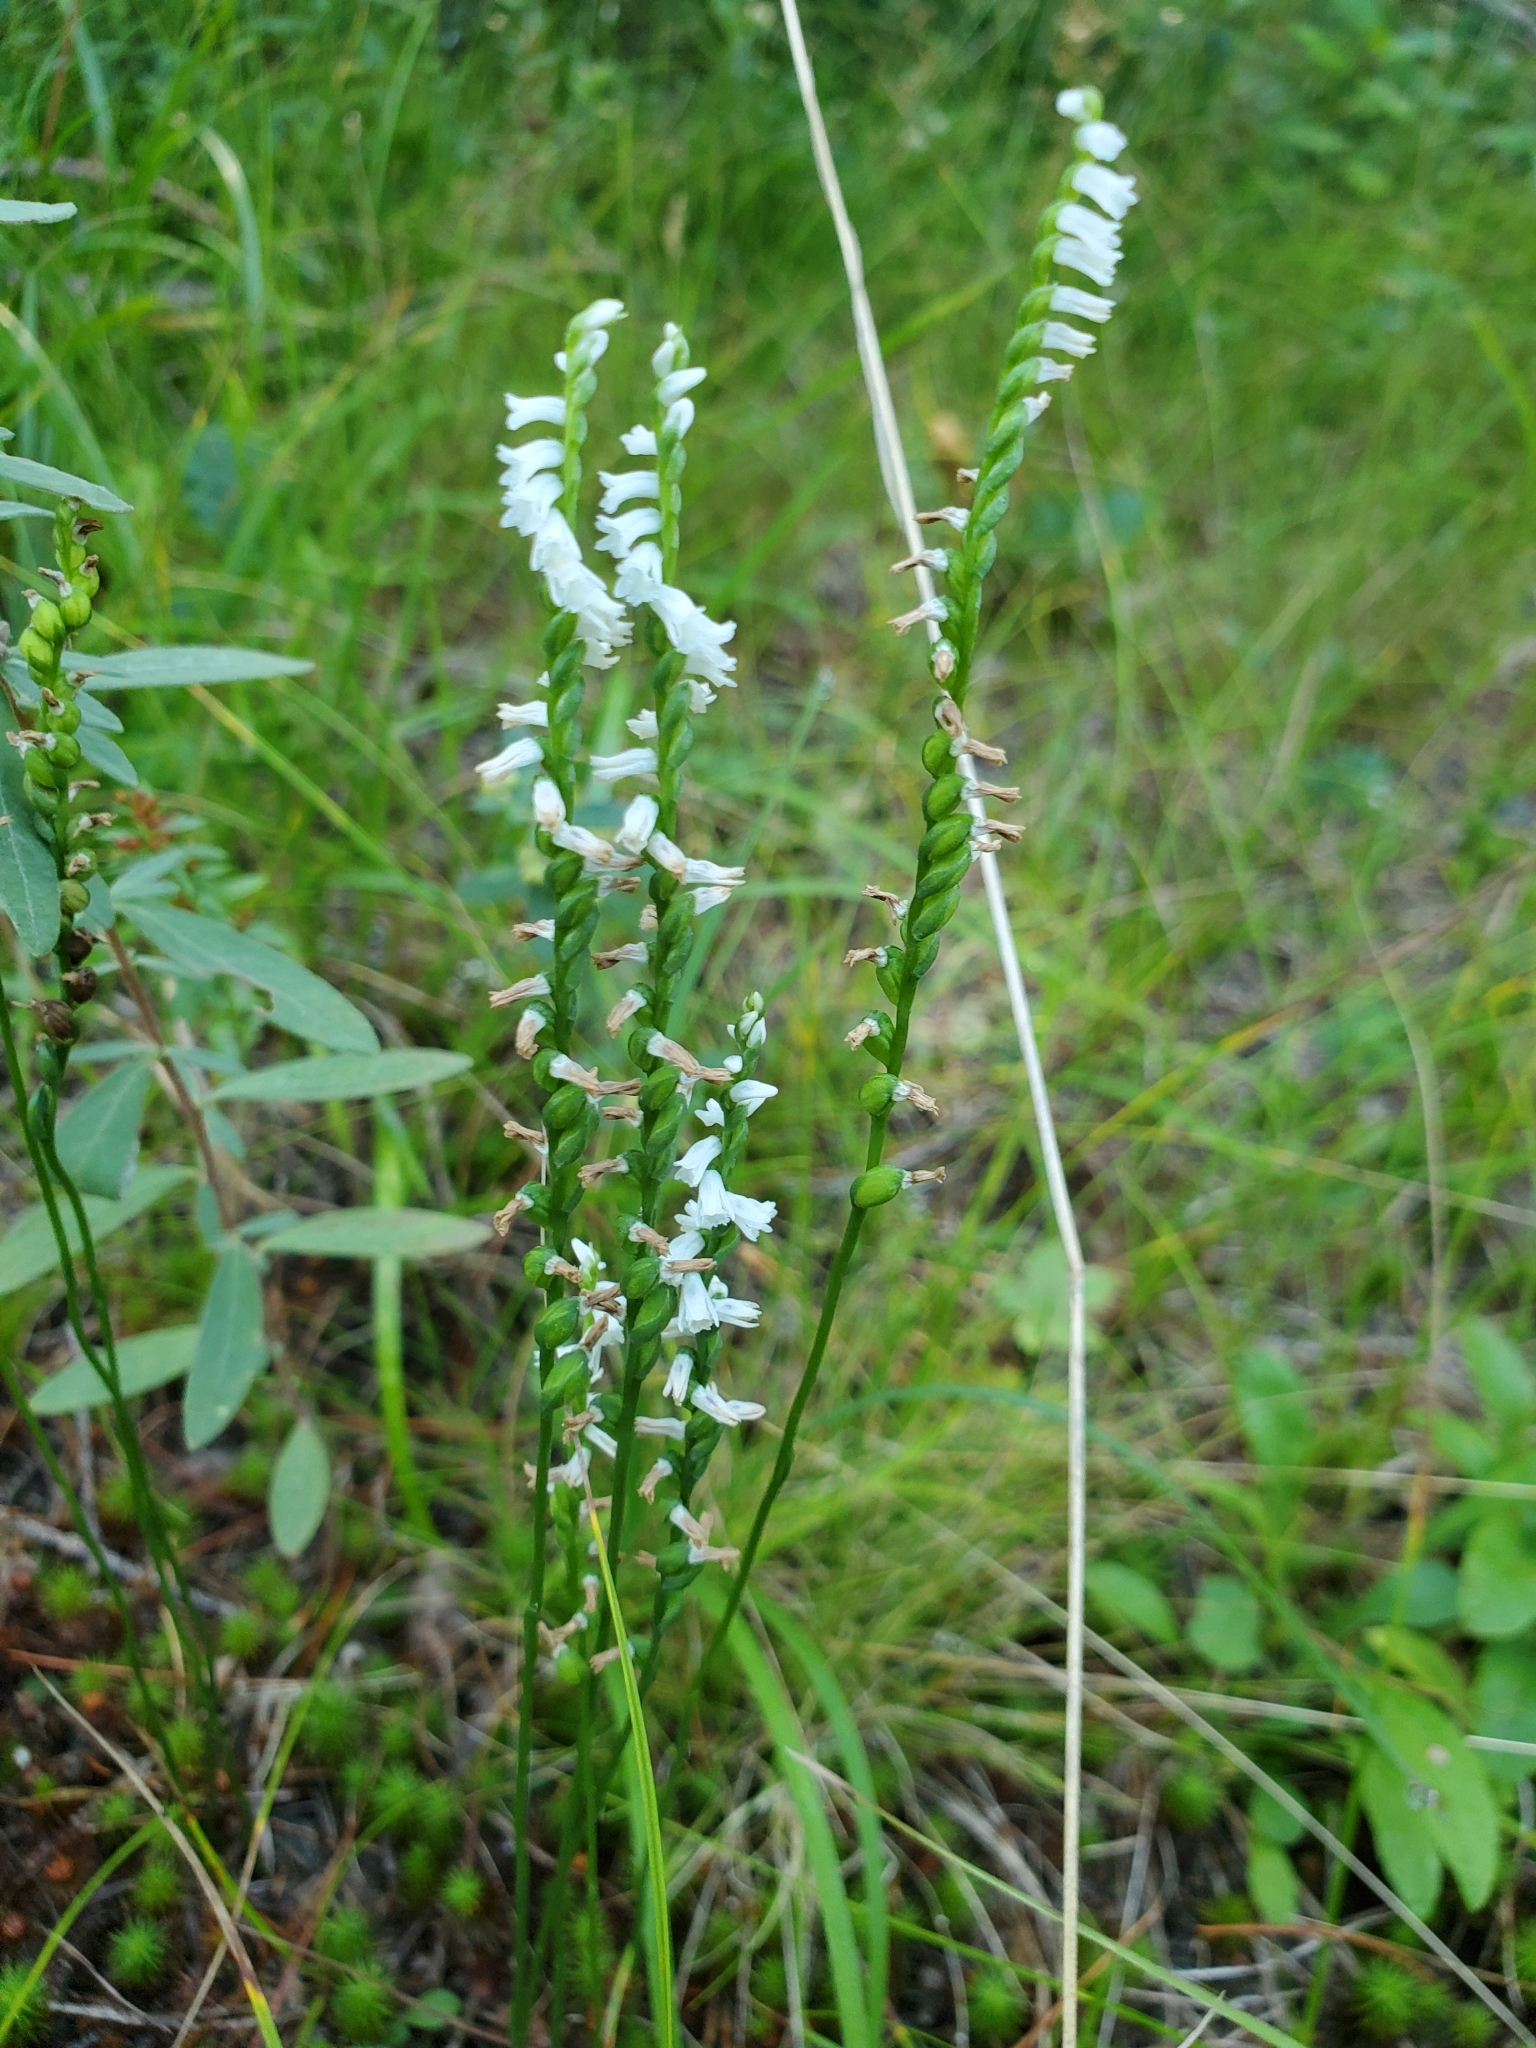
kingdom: Plantae
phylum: Tracheophyta
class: Liliopsida
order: Asparagales
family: Orchidaceae
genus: Spiranthes
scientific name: Spiranthes tuberosa
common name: Little ladies'-tresses
